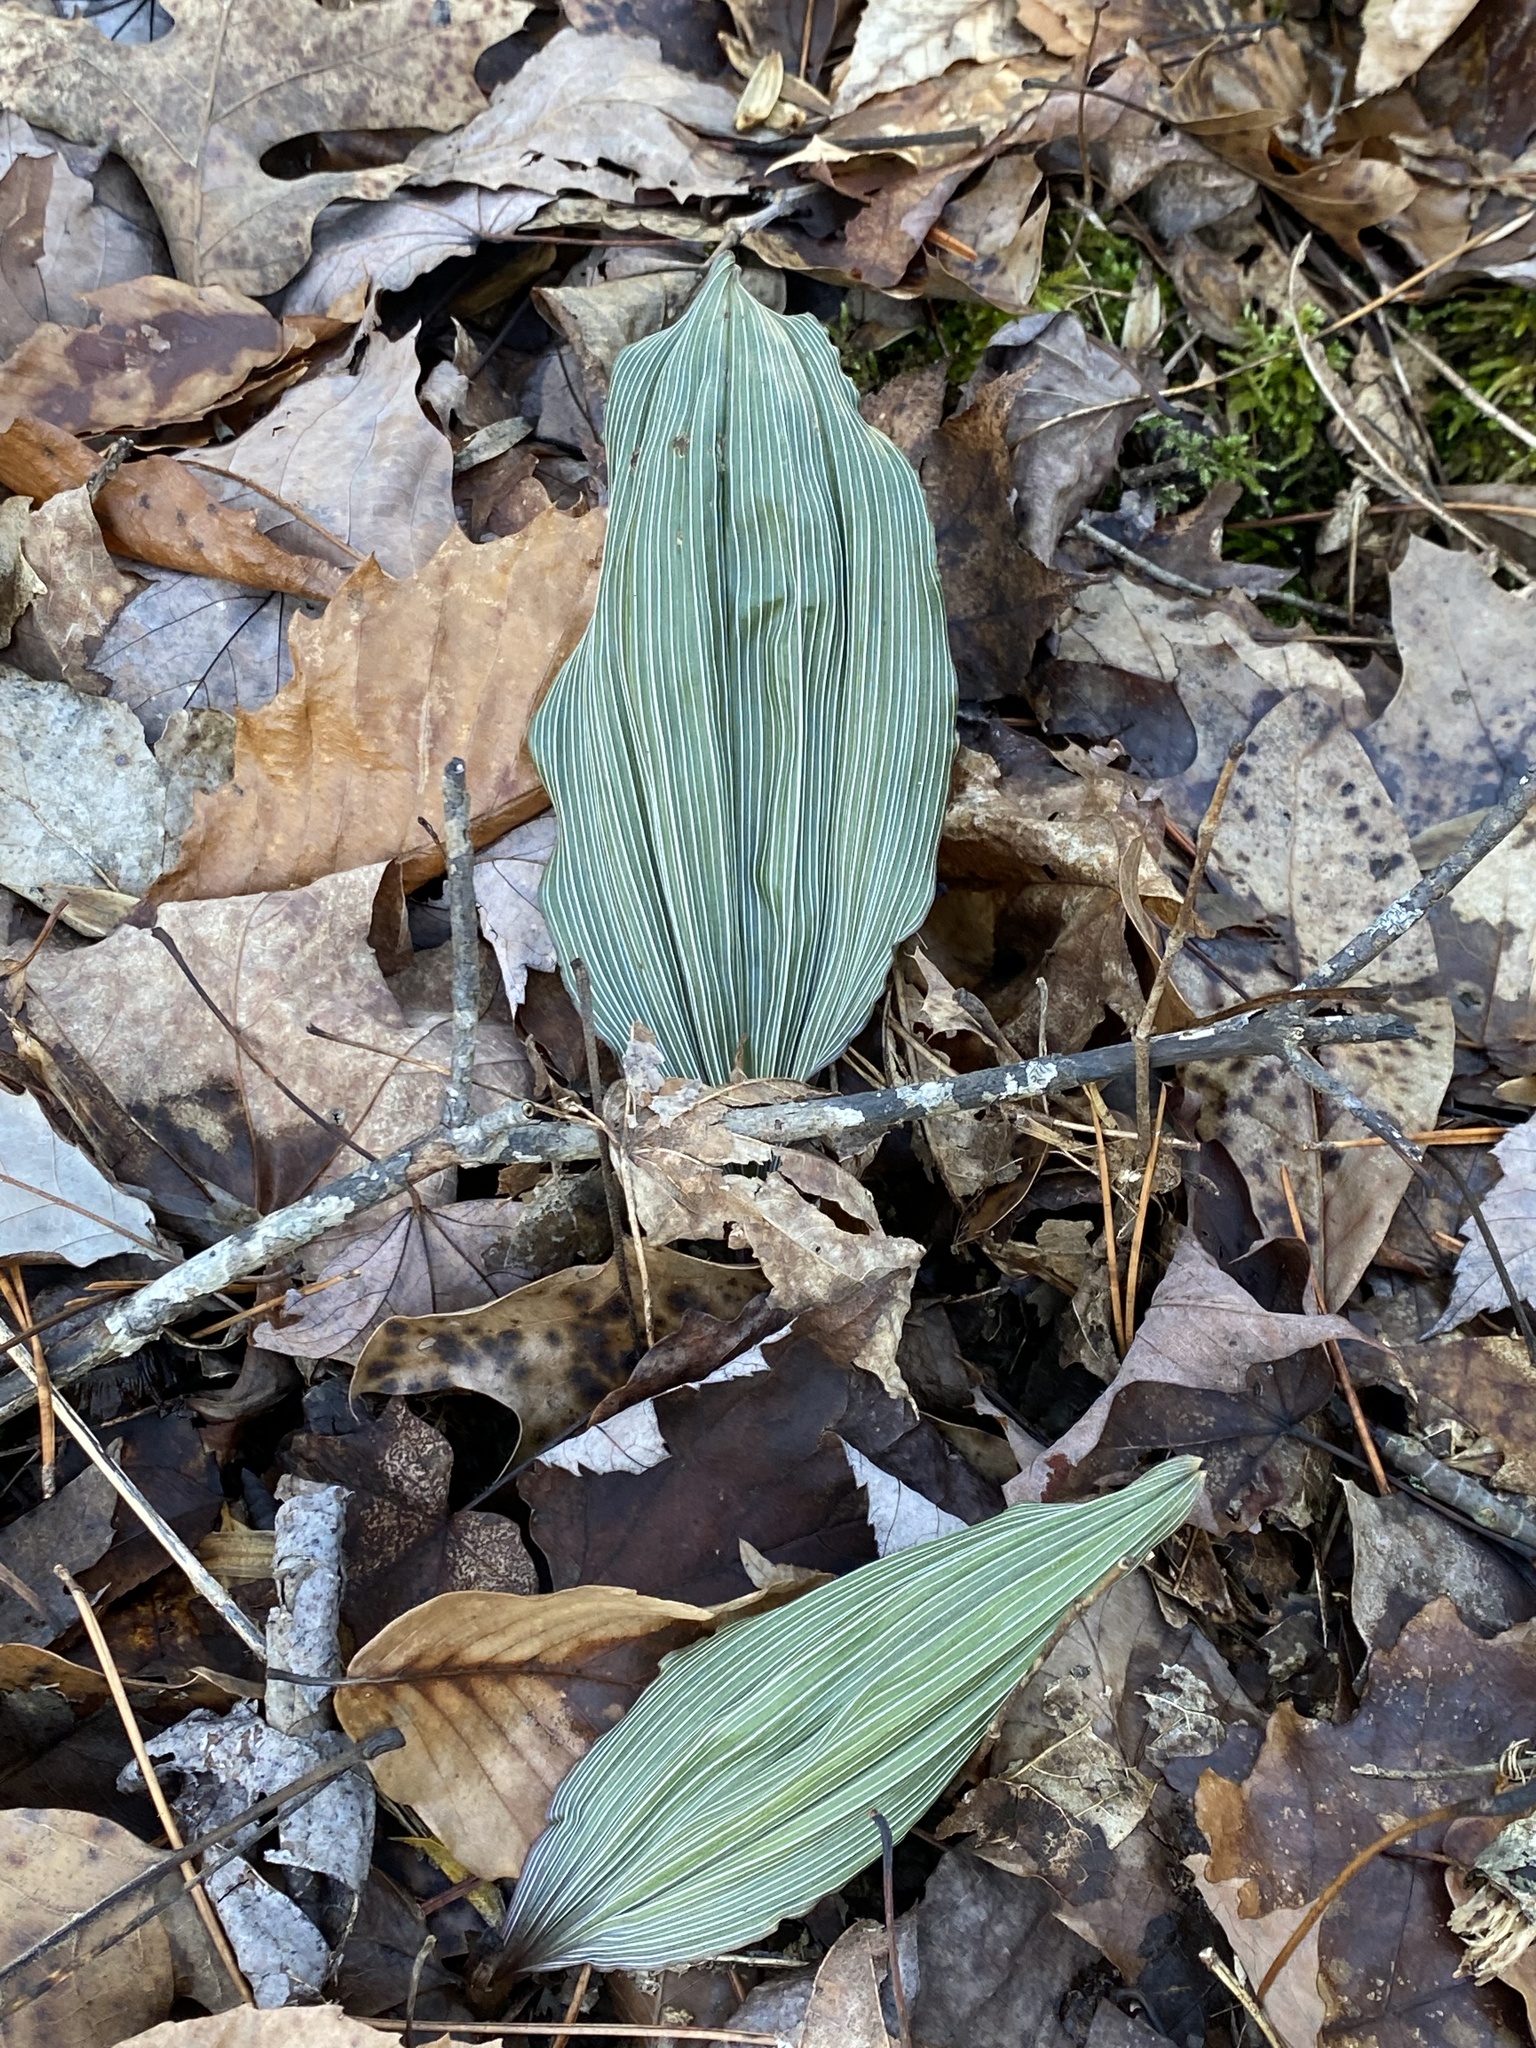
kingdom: Plantae
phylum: Tracheophyta
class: Liliopsida
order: Asparagales
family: Orchidaceae
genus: Aplectrum
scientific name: Aplectrum hyemale
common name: Adam-and-eve
